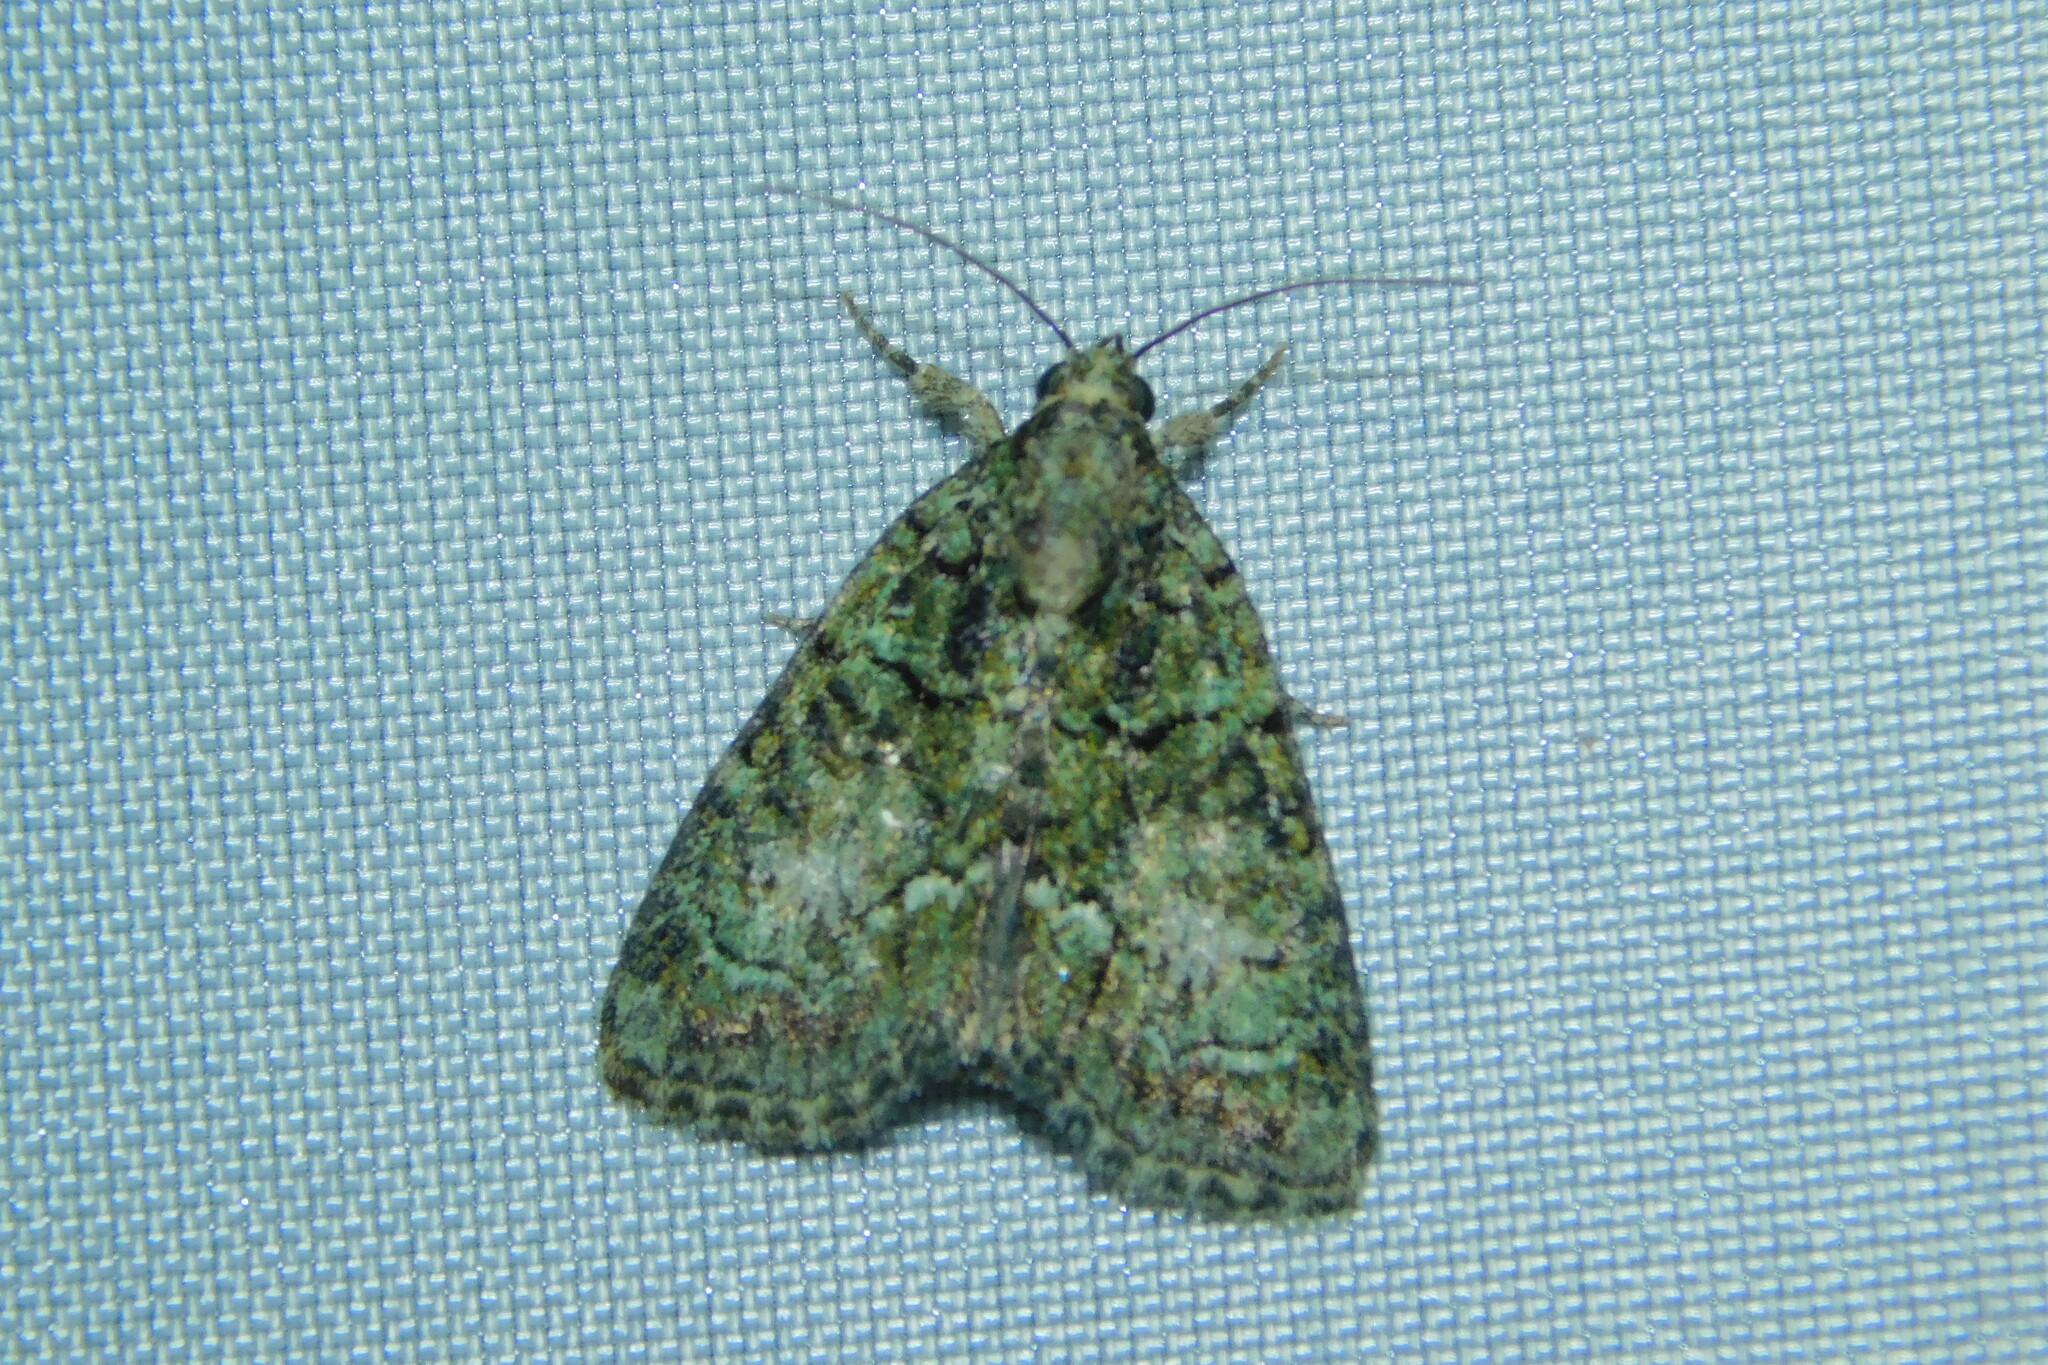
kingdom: Animalia
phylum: Arthropoda
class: Insecta
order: Lepidoptera
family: Noctuidae
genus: Cryphia
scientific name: Cryphia algae
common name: Tree-lichen beauty
